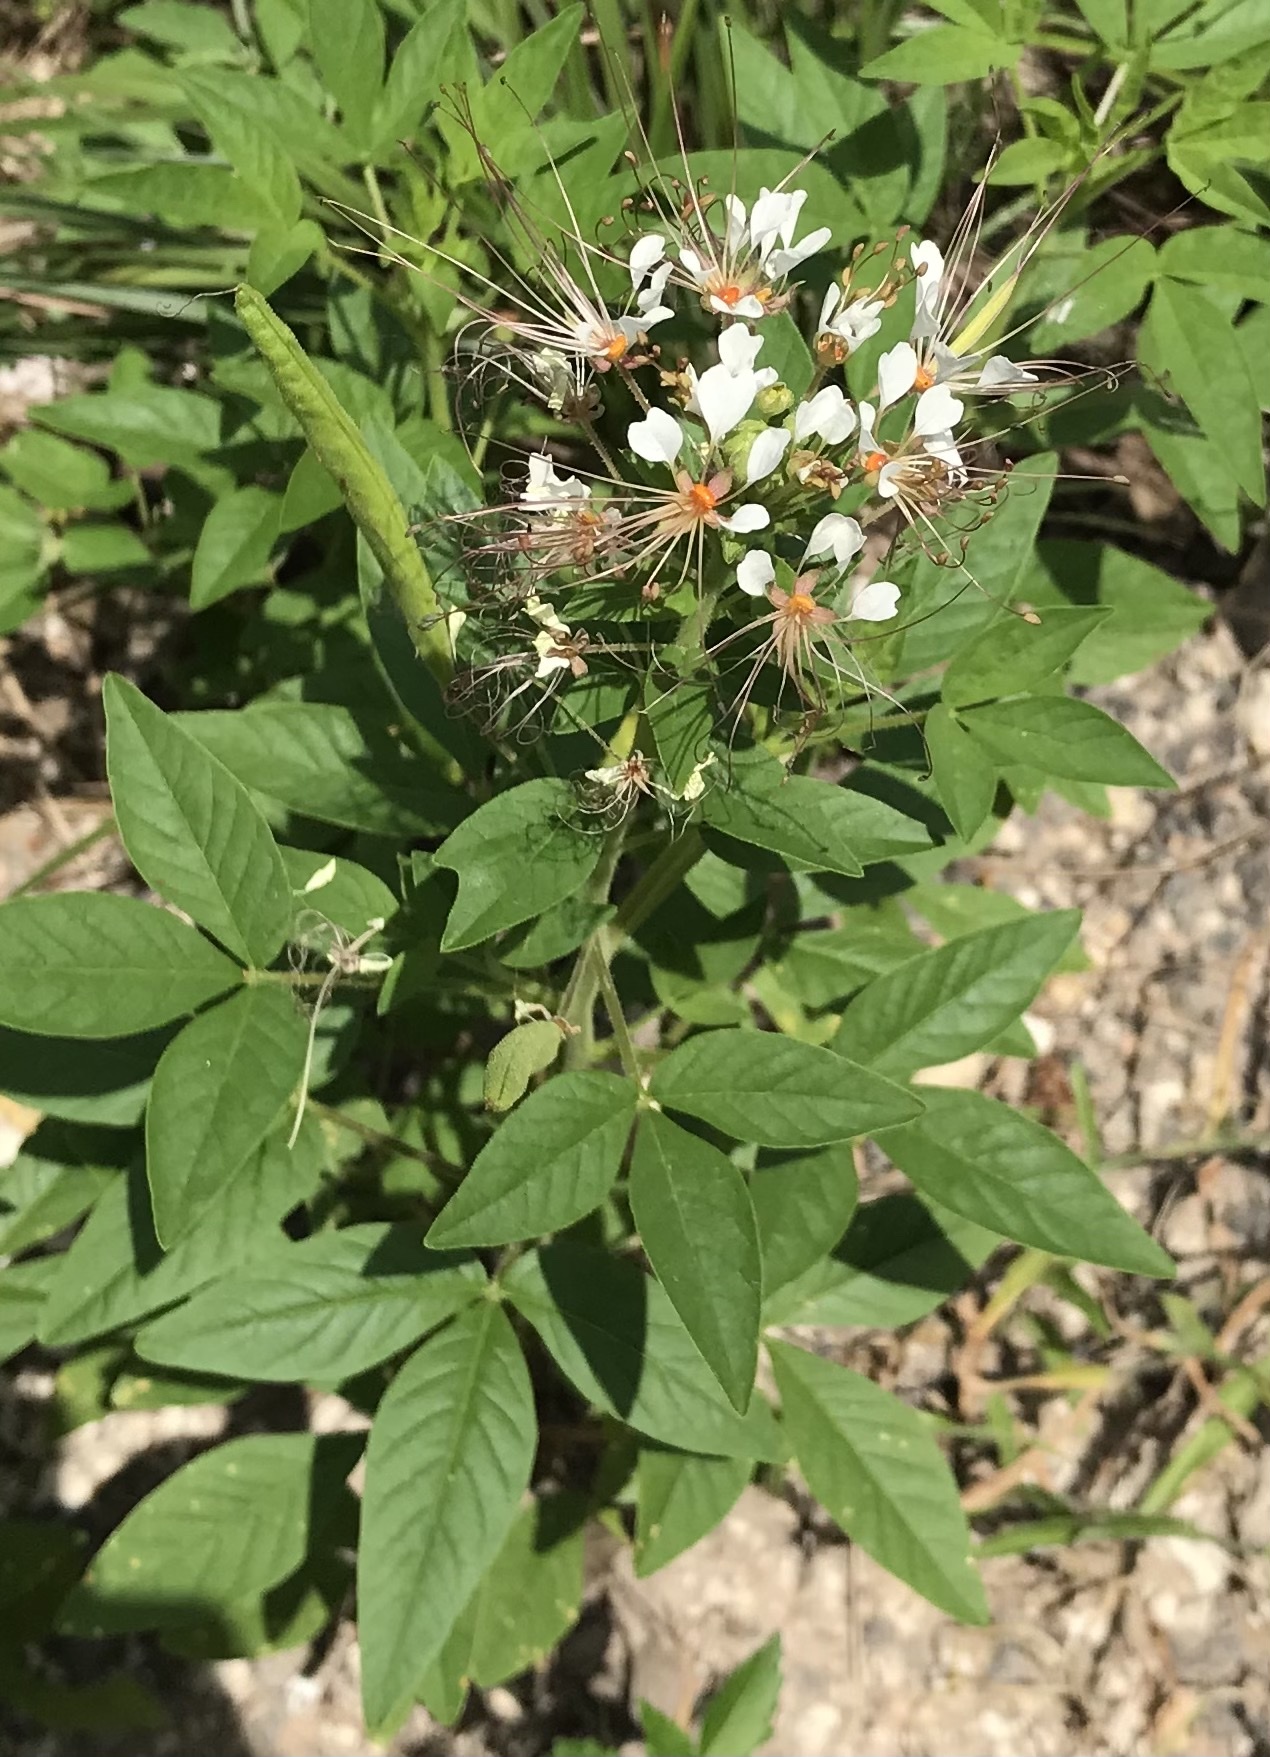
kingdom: Plantae
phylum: Tracheophyta
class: Magnoliopsida
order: Brassicales
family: Cleomaceae
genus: Polanisia
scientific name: Polanisia dodecandra
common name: Clammyweed
